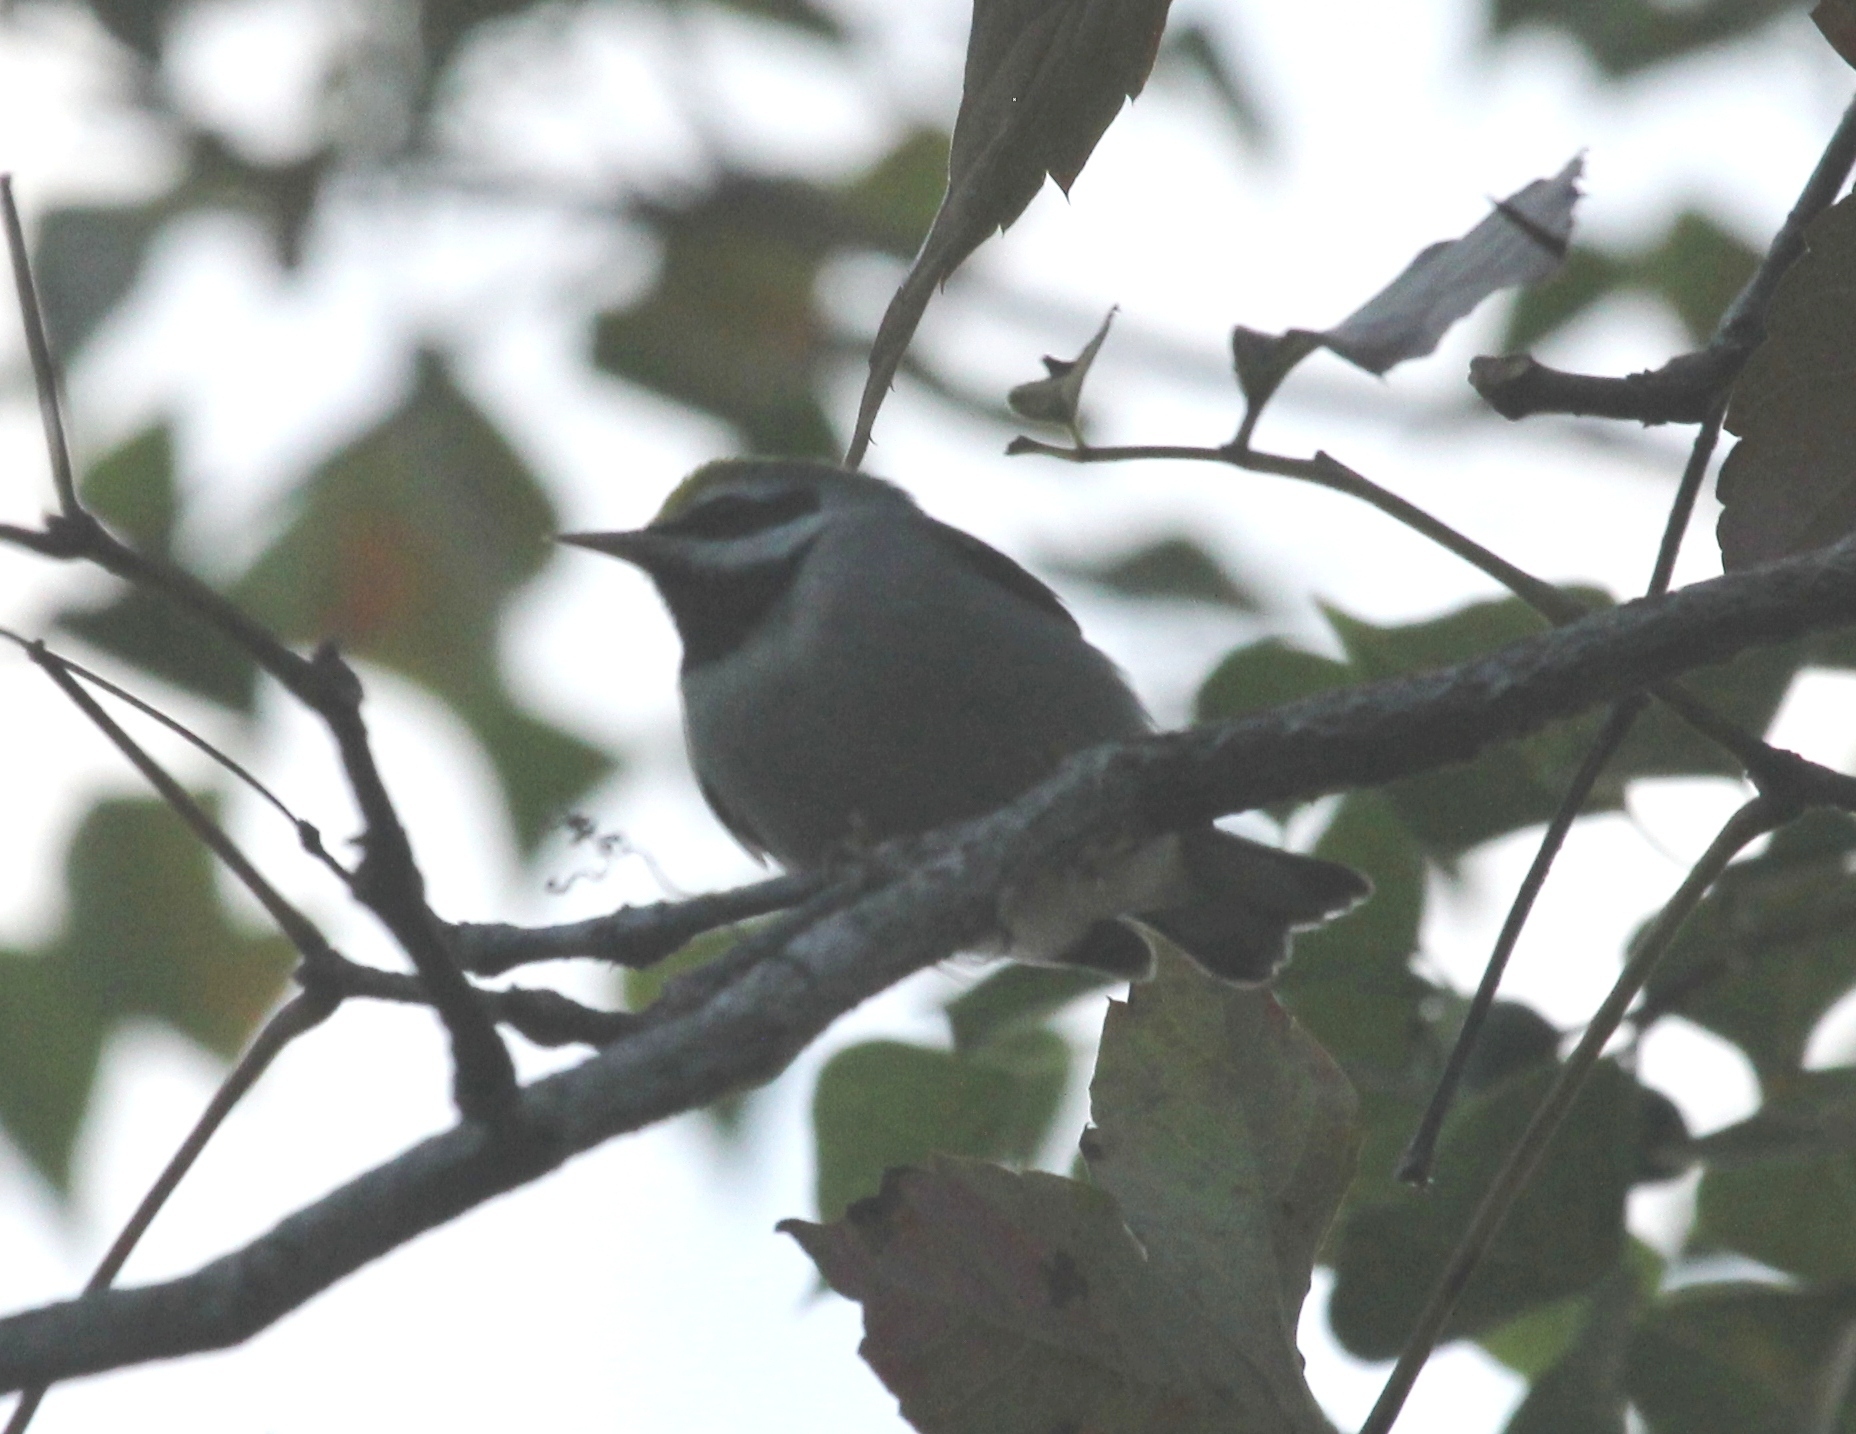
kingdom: Animalia
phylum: Chordata
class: Aves
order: Passeriformes
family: Parulidae
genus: Vermivora
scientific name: Vermivora chrysoptera
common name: Golden-winged warbler
